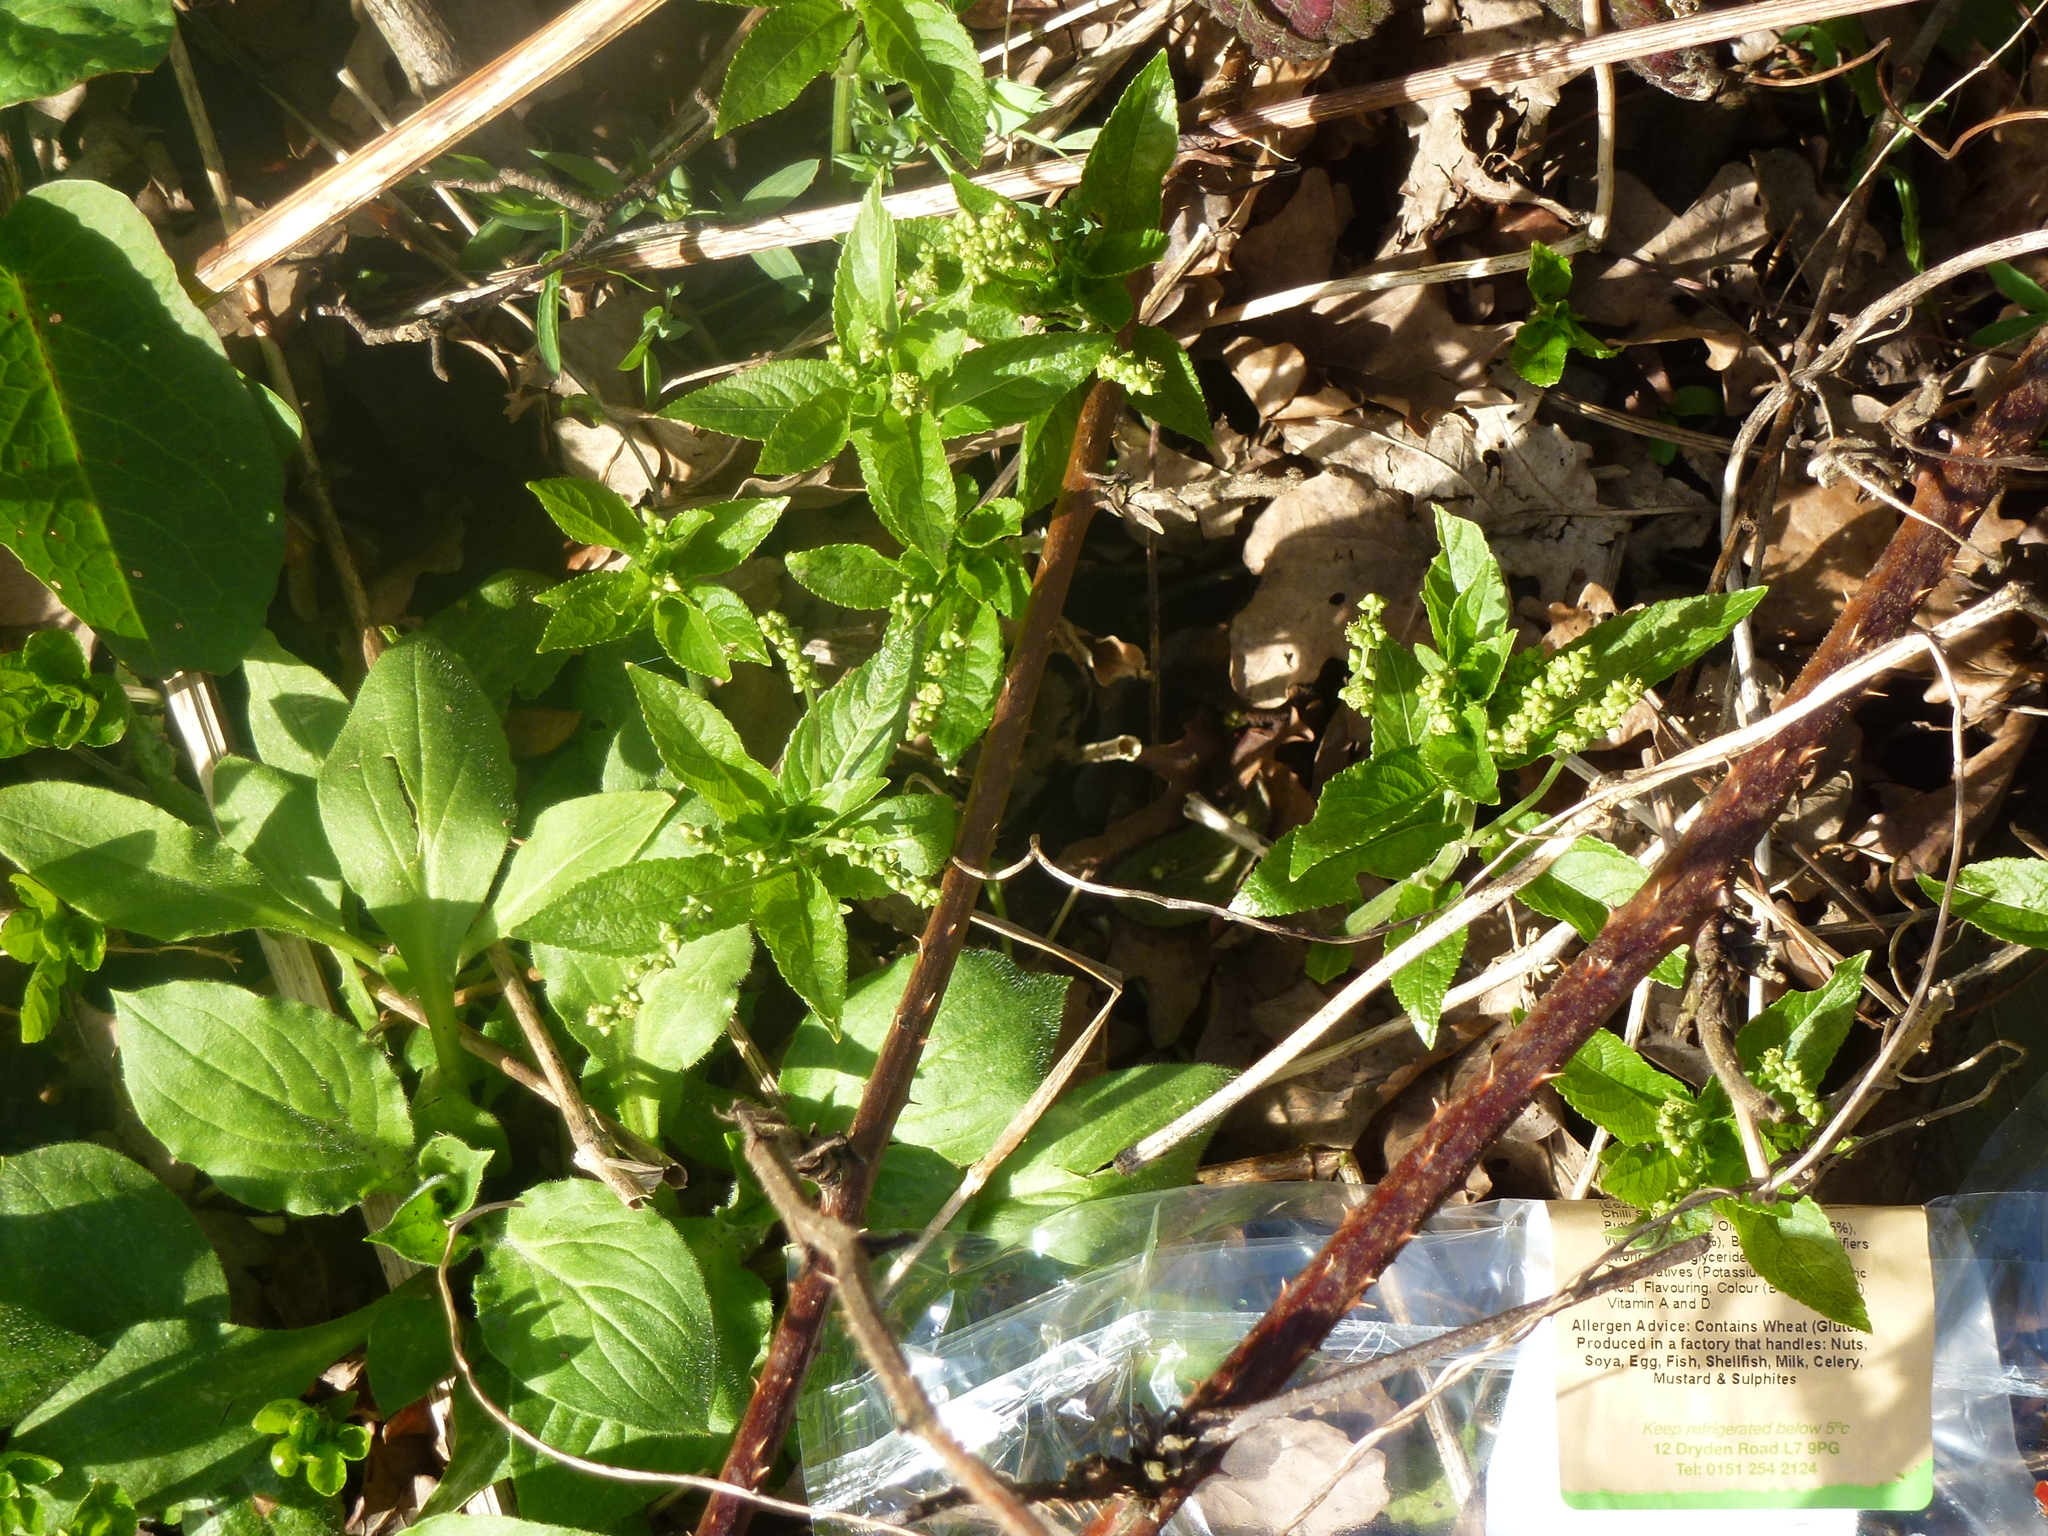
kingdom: Plantae
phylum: Tracheophyta
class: Magnoliopsida
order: Malpighiales
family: Euphorbiaceae
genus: Mercurialis
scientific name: Mercurialis perennis
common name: Dog mercury
